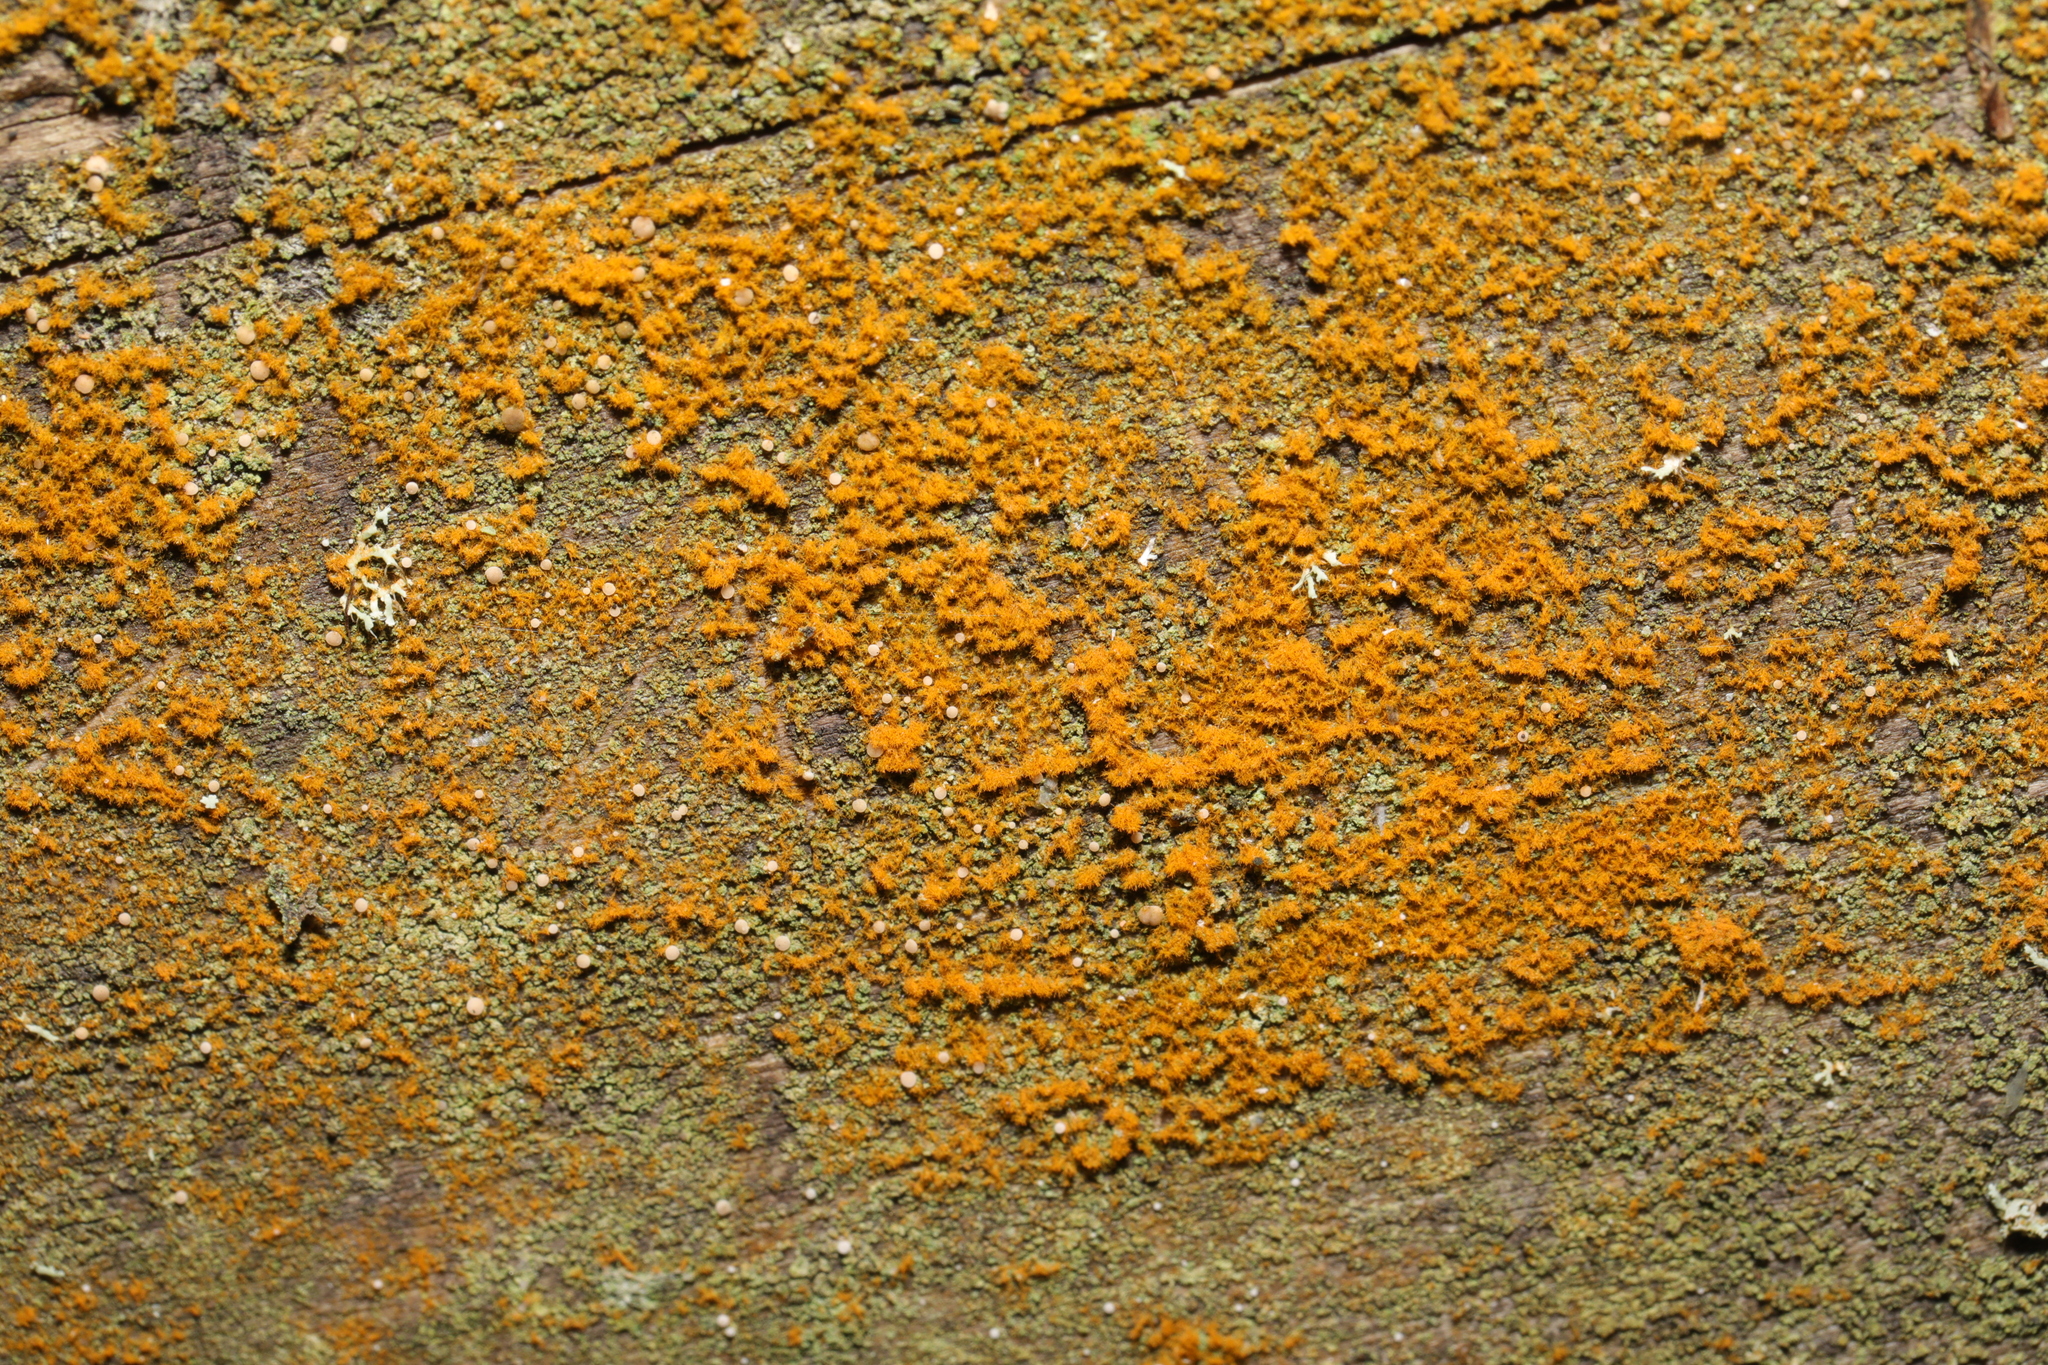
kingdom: Plantae
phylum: Chlorophyta
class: Ulvophyceae
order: Trentepohliales
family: Trentepohliaceae
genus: Trentepohlia
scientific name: Trentepohlia
